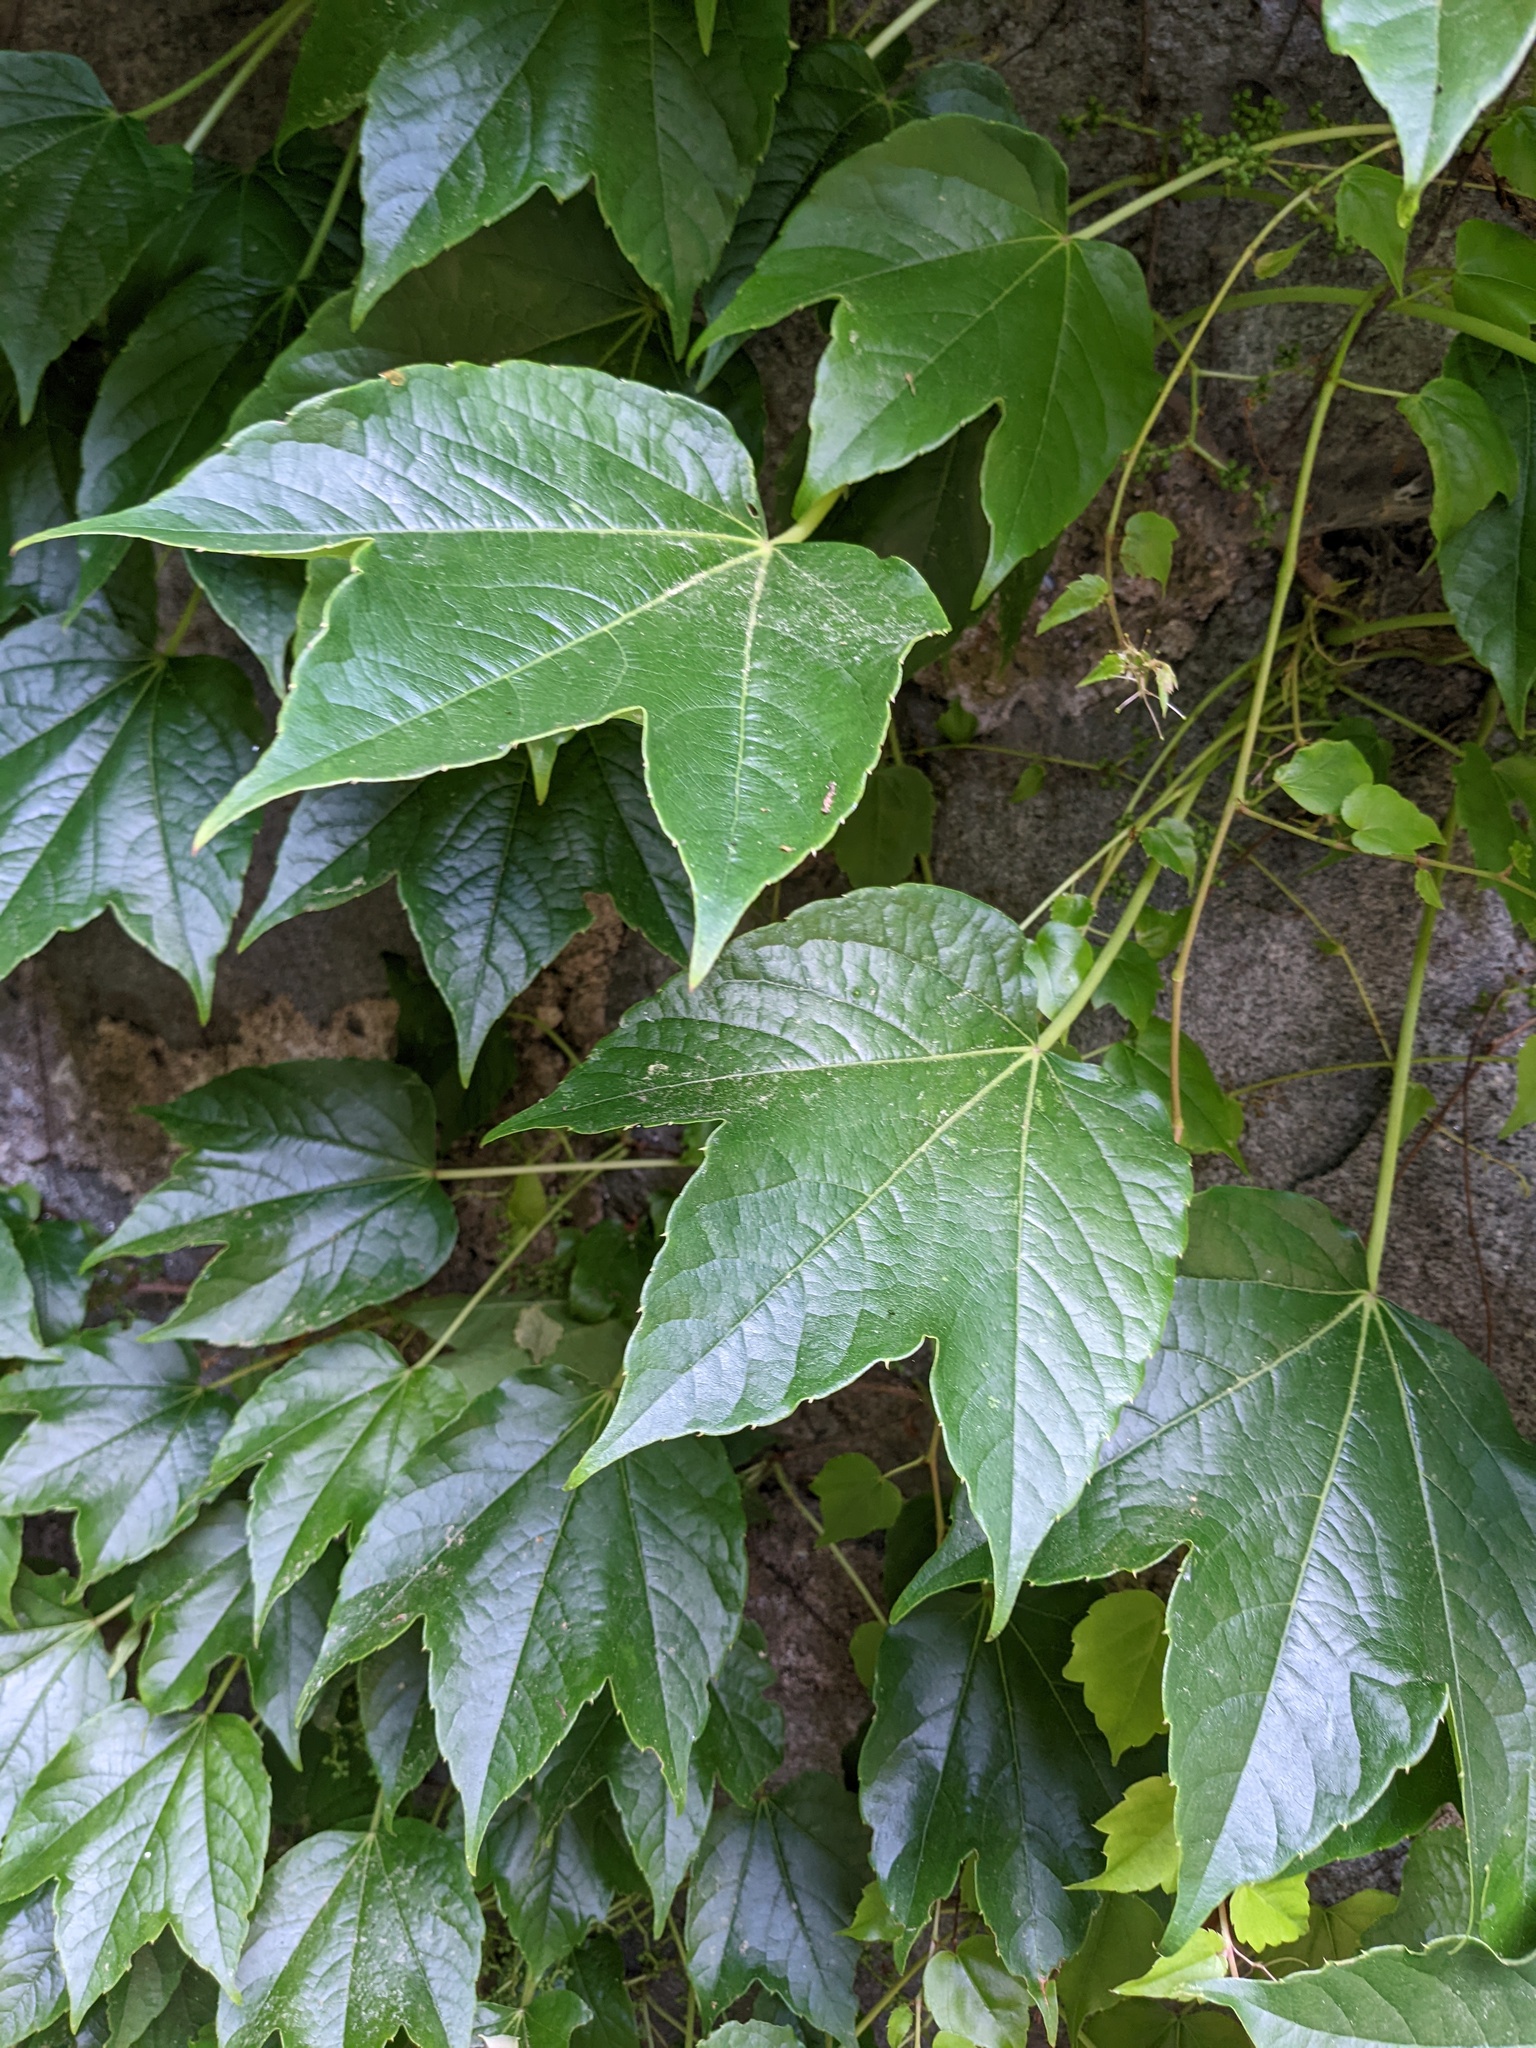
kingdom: Plantae
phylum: Tracheophyta
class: Magnoliopsida
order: Vitales
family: Vitaceae
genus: Parthenocissus
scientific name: Parthenocissus tricuspidata
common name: Boston ivy
